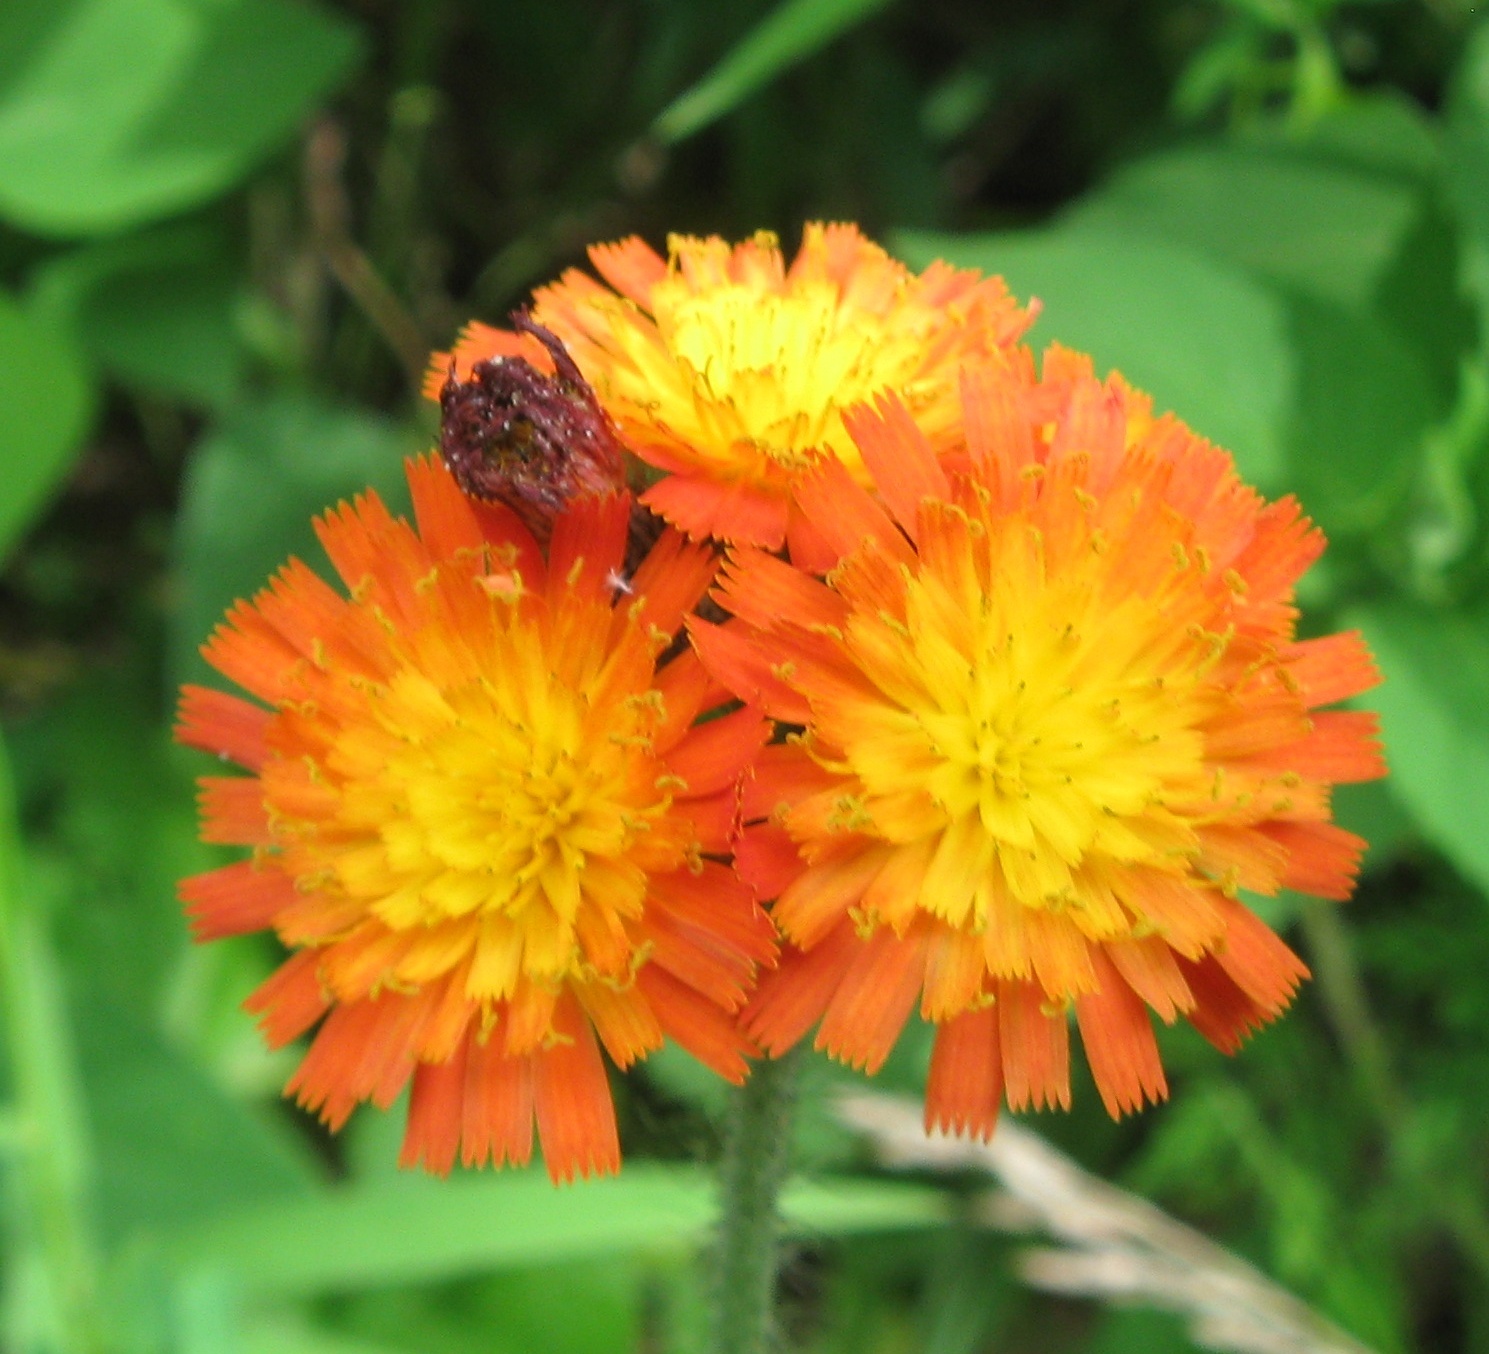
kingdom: Plantae
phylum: Tracheophyta
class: Magnoliopsida
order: Asterales
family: Asteraceae
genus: Pilosella
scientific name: Pilosella aurantiaca
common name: Fox-and-cubs
